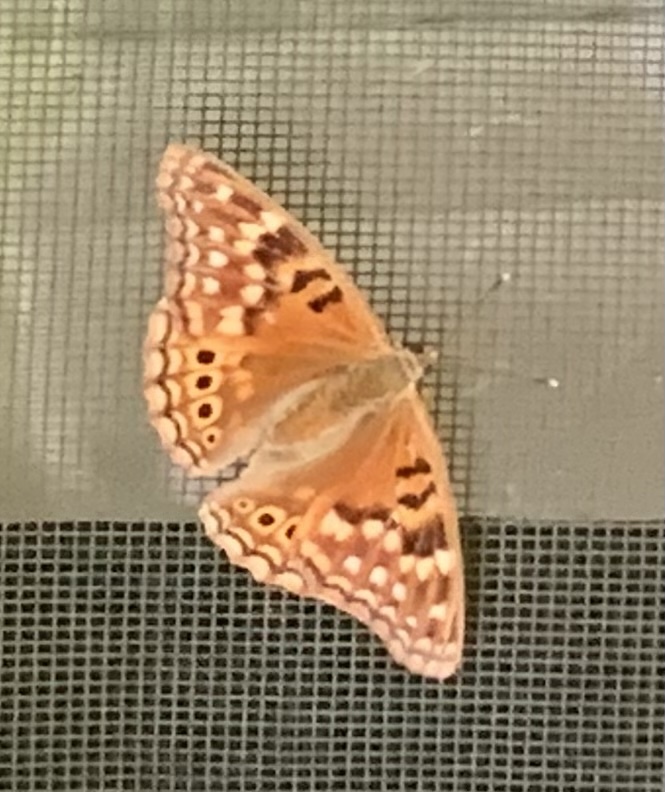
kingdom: Animalia
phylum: Arthropoda
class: Insecta
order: Lepidoptera
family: Nymphalidae
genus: Asterocampa
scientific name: Asterocampa clyton
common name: Tawny emperor
